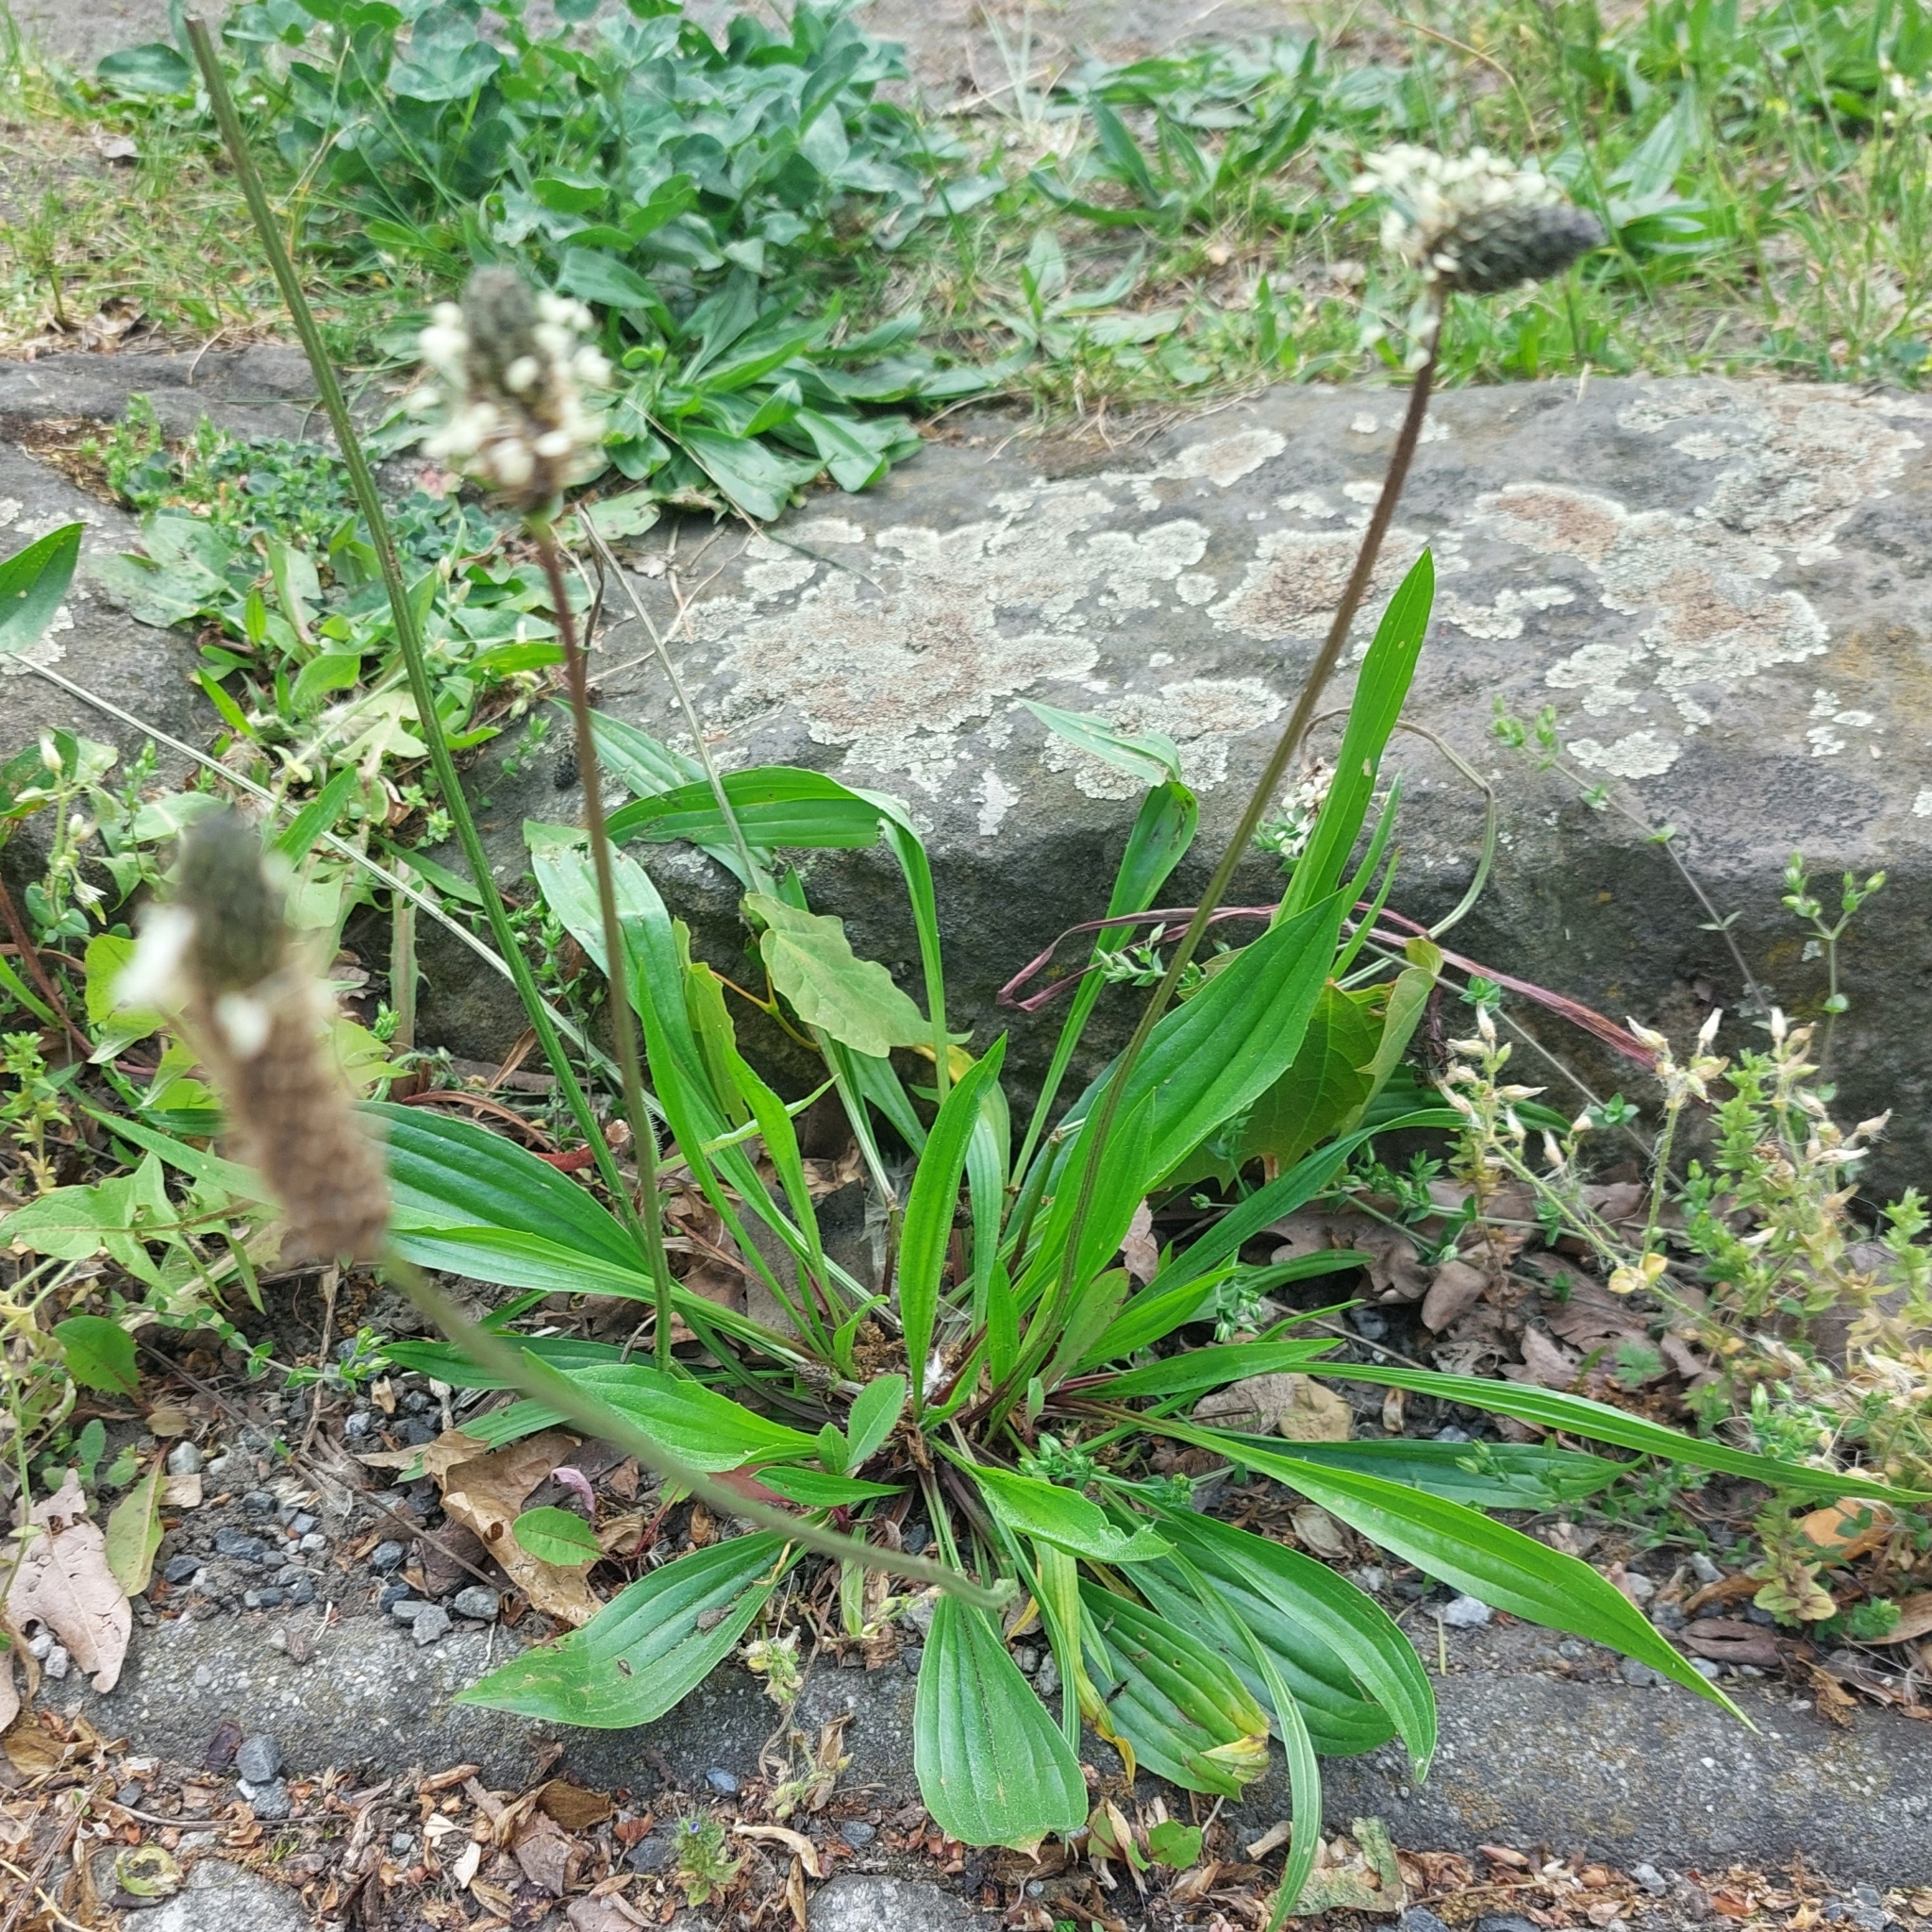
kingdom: Plantae
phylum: Tracheophyta
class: Magnoliopsida
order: Lamiales
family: Plantaginaceae
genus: Plantago
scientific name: Plantago lanceolata
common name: Ribwort plantain
